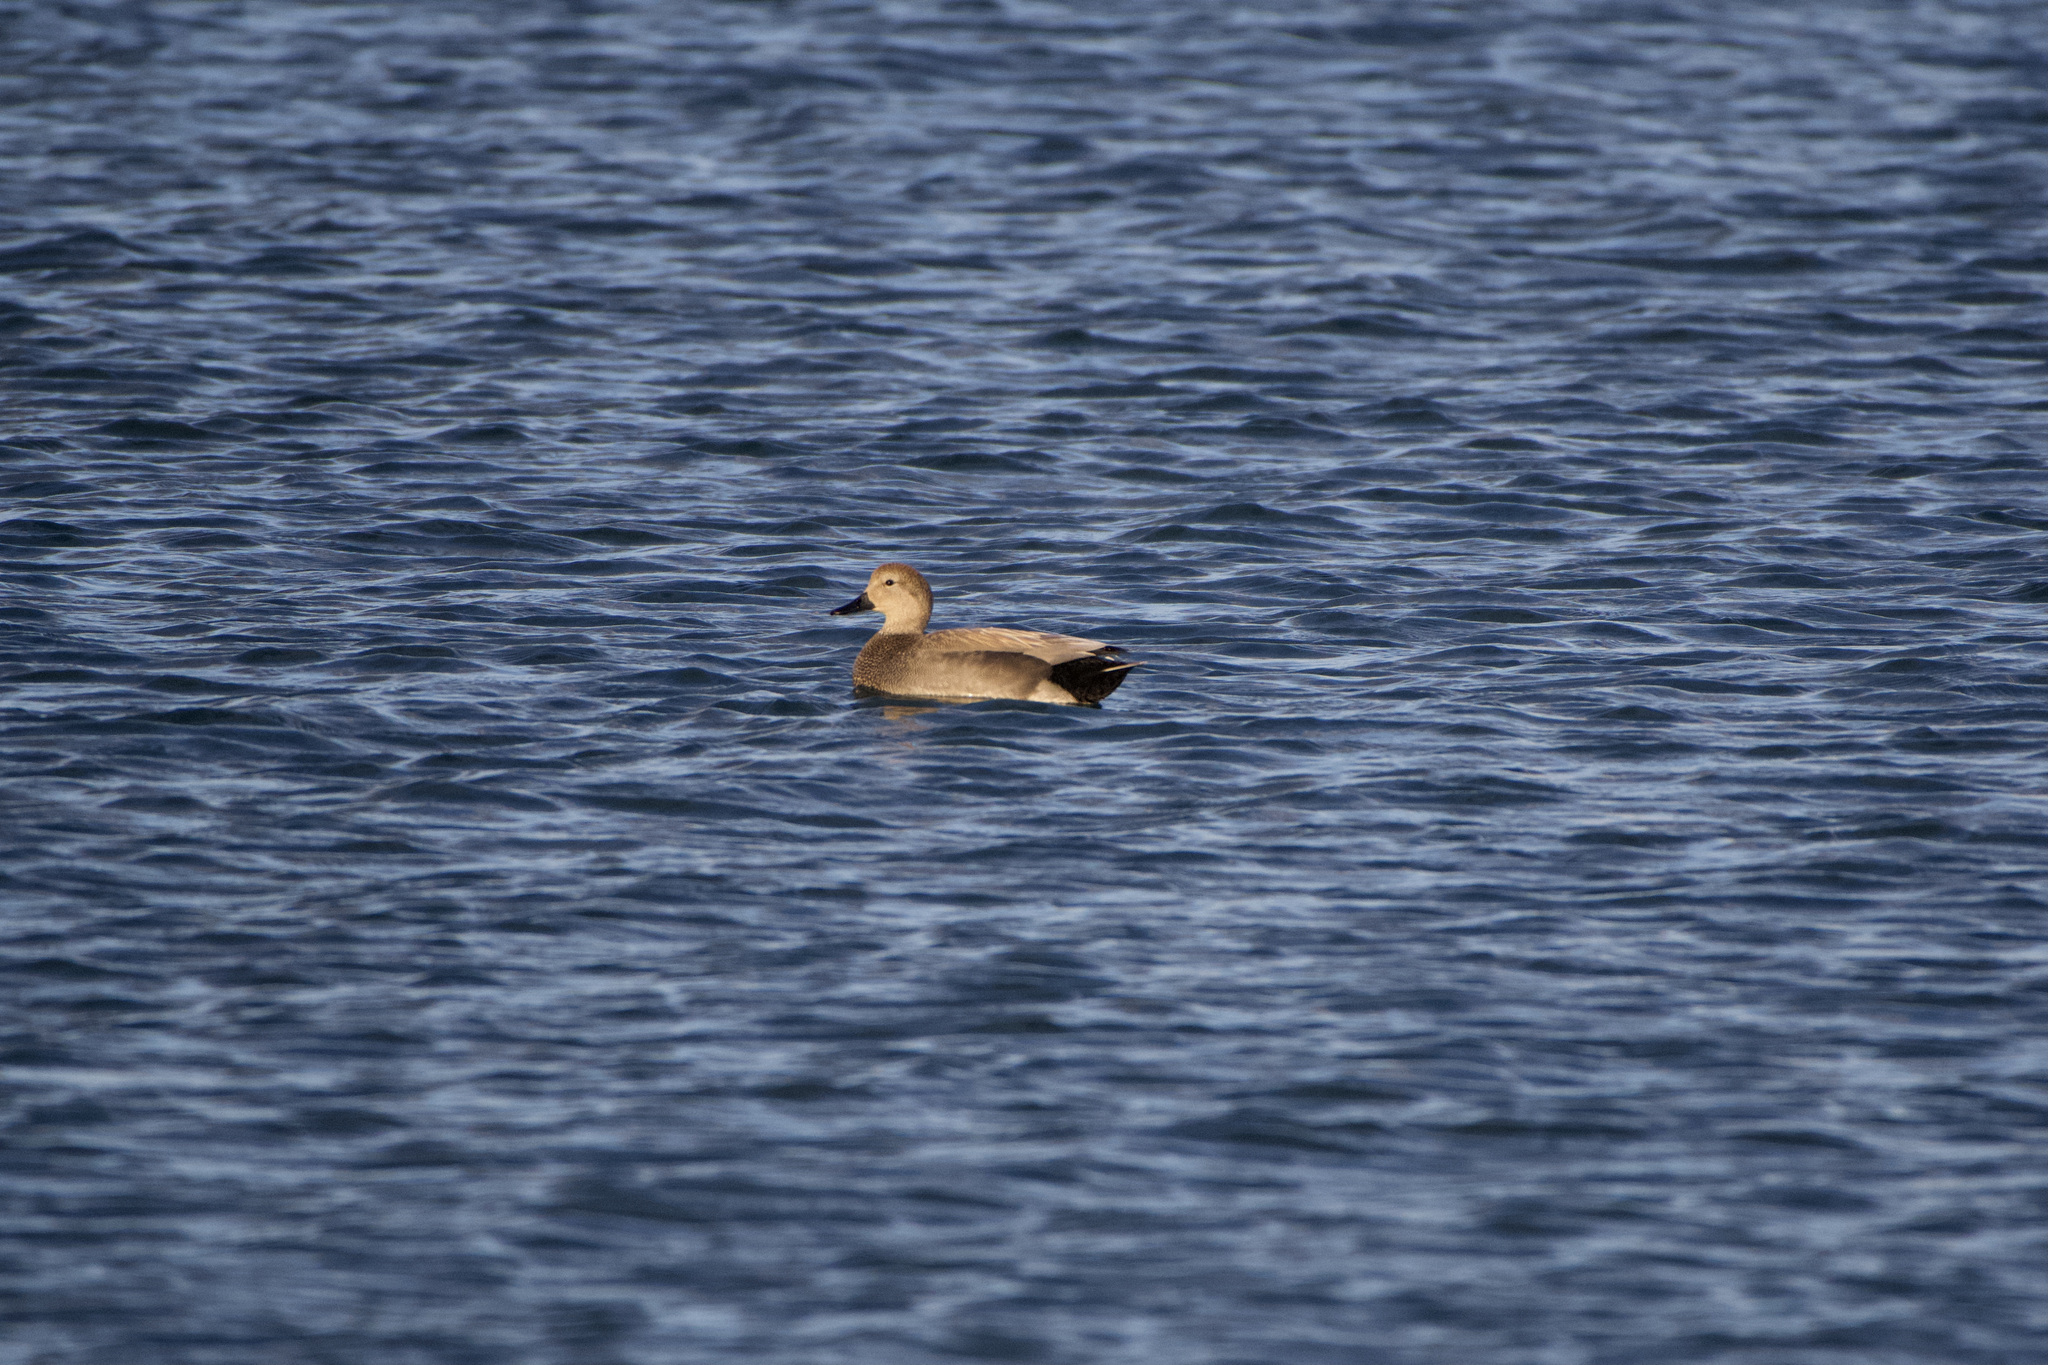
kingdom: Animalia
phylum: Chordata
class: Aves
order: Anseriformes
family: Anatidae
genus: Mareca
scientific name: Mareca strepera
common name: Gadwall
